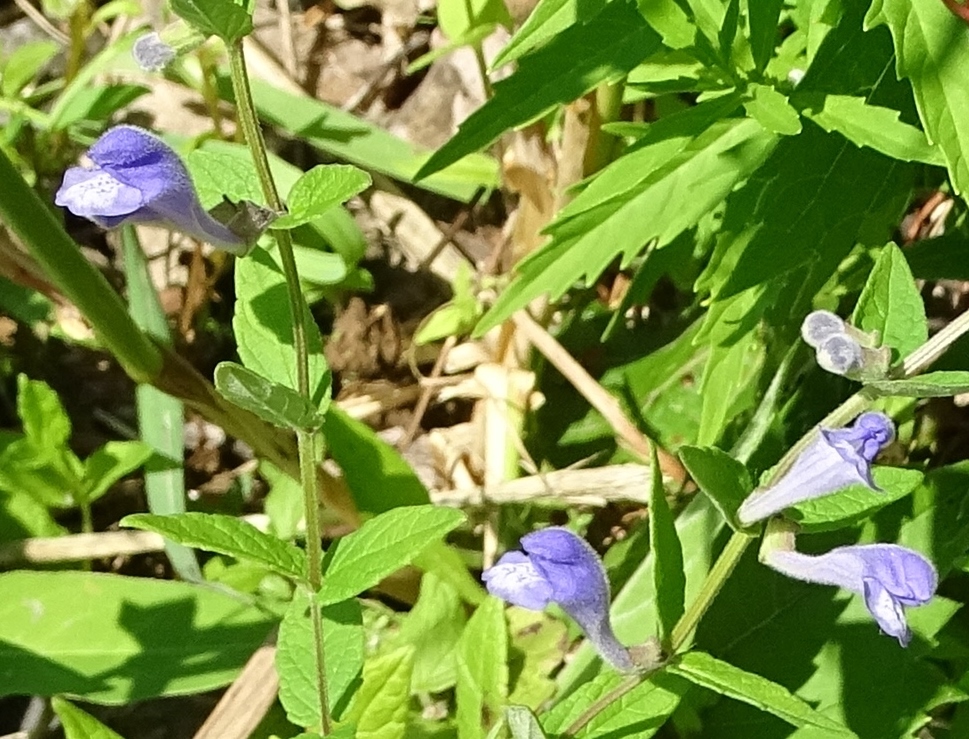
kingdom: Plantae
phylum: Tracheophyta
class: Magnoliopsida
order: Lamiales
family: Lamiaceae
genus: Scutellaria
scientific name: Scutellaria galericulata
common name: Skullcap
